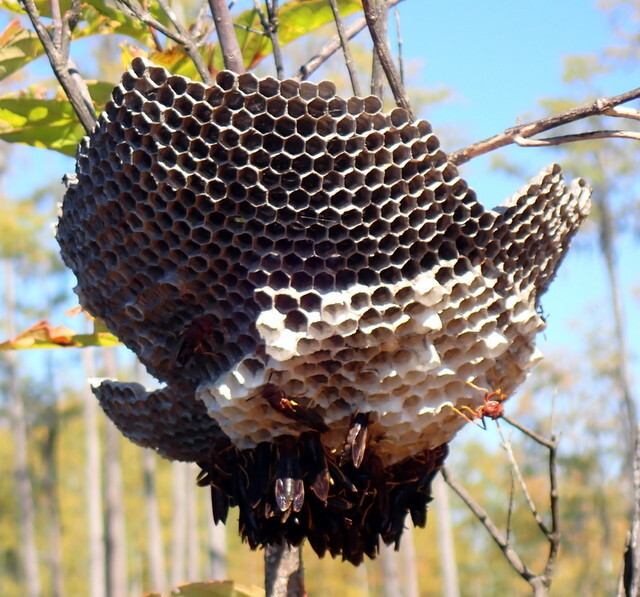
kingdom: Animalia
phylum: Arthropoda
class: Insecta
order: Hymenoptera
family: Eumenidae
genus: Polistes
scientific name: Polistes annularis
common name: Ringed paper wasp
